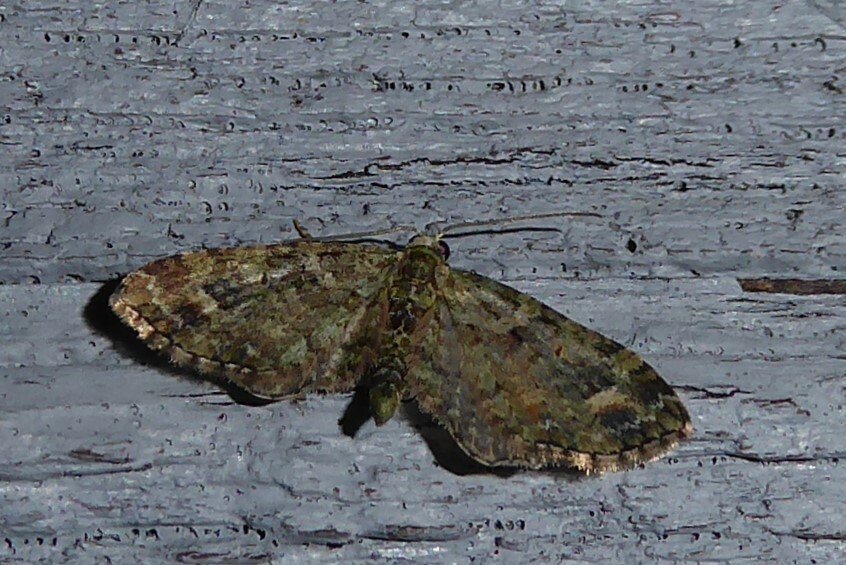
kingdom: Animalia
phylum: Arthropoda
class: Insecta
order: Lepidoptera
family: Geometridae
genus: Idaea
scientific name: Idaea mutanda
